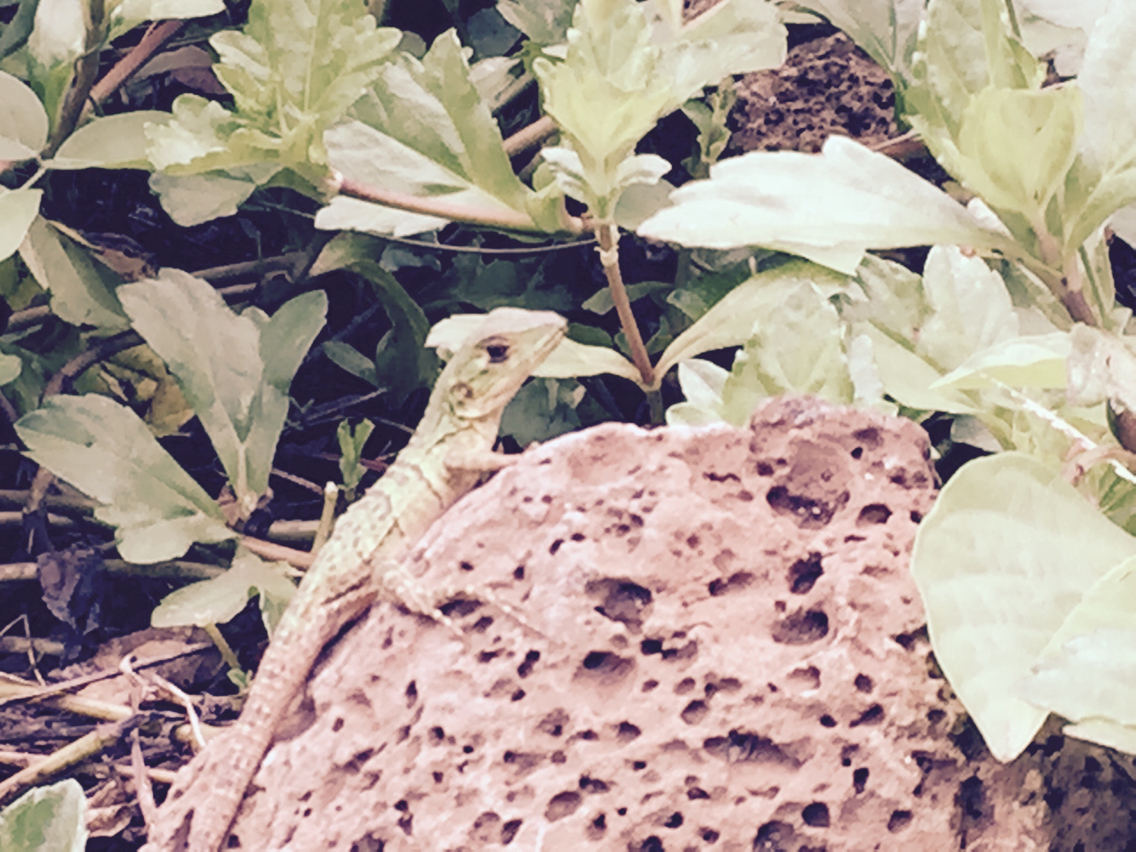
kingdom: Animalia
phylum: Chordata
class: Squamata
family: Iguanidae
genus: Ctenosaura
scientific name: Ctenosaura similis
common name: Black spiny-tailed iguana
